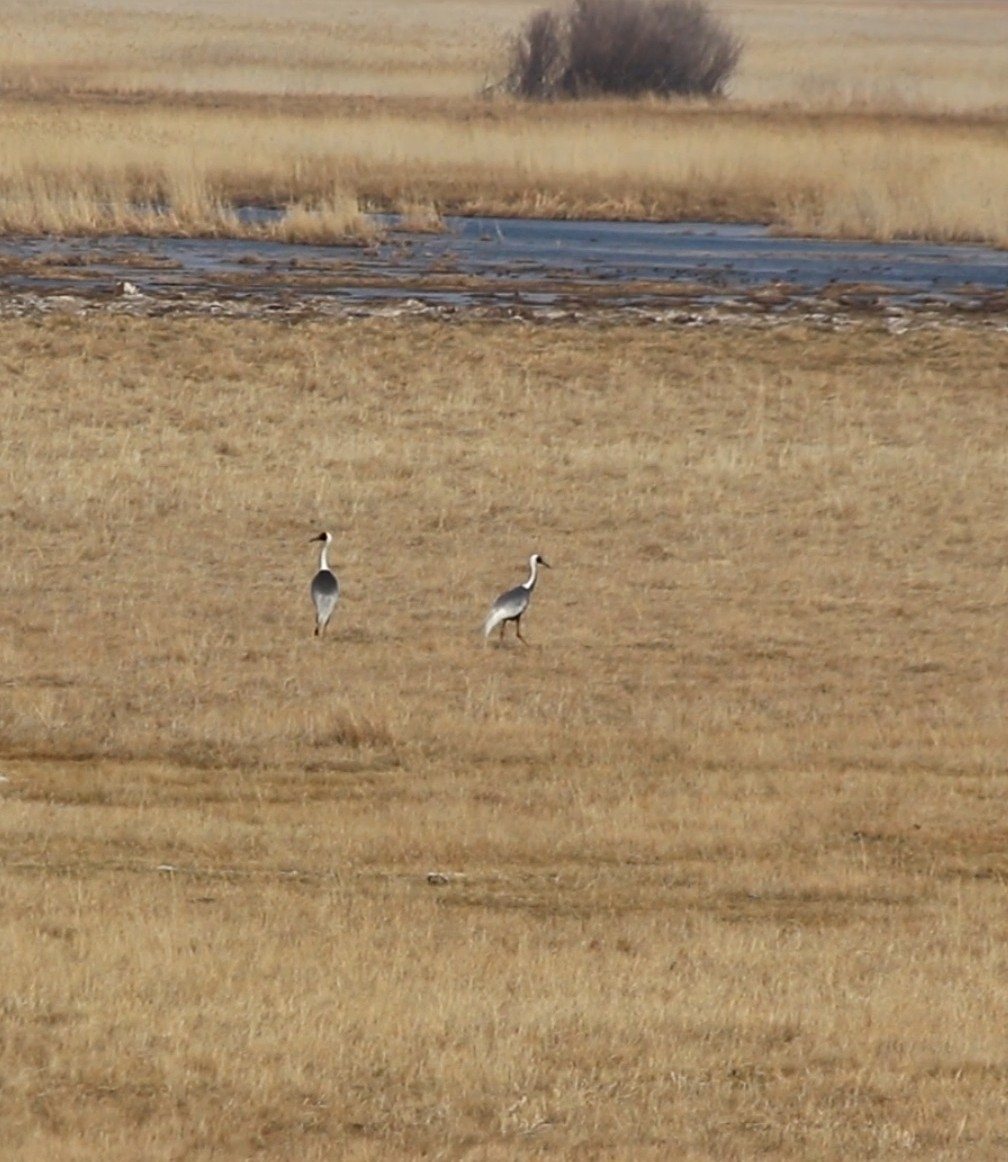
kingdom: Animalia
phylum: Chordata
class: Aves
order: Gruiformes
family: Gruidae
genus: Grus
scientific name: Grus vipio
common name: White-naped crane
